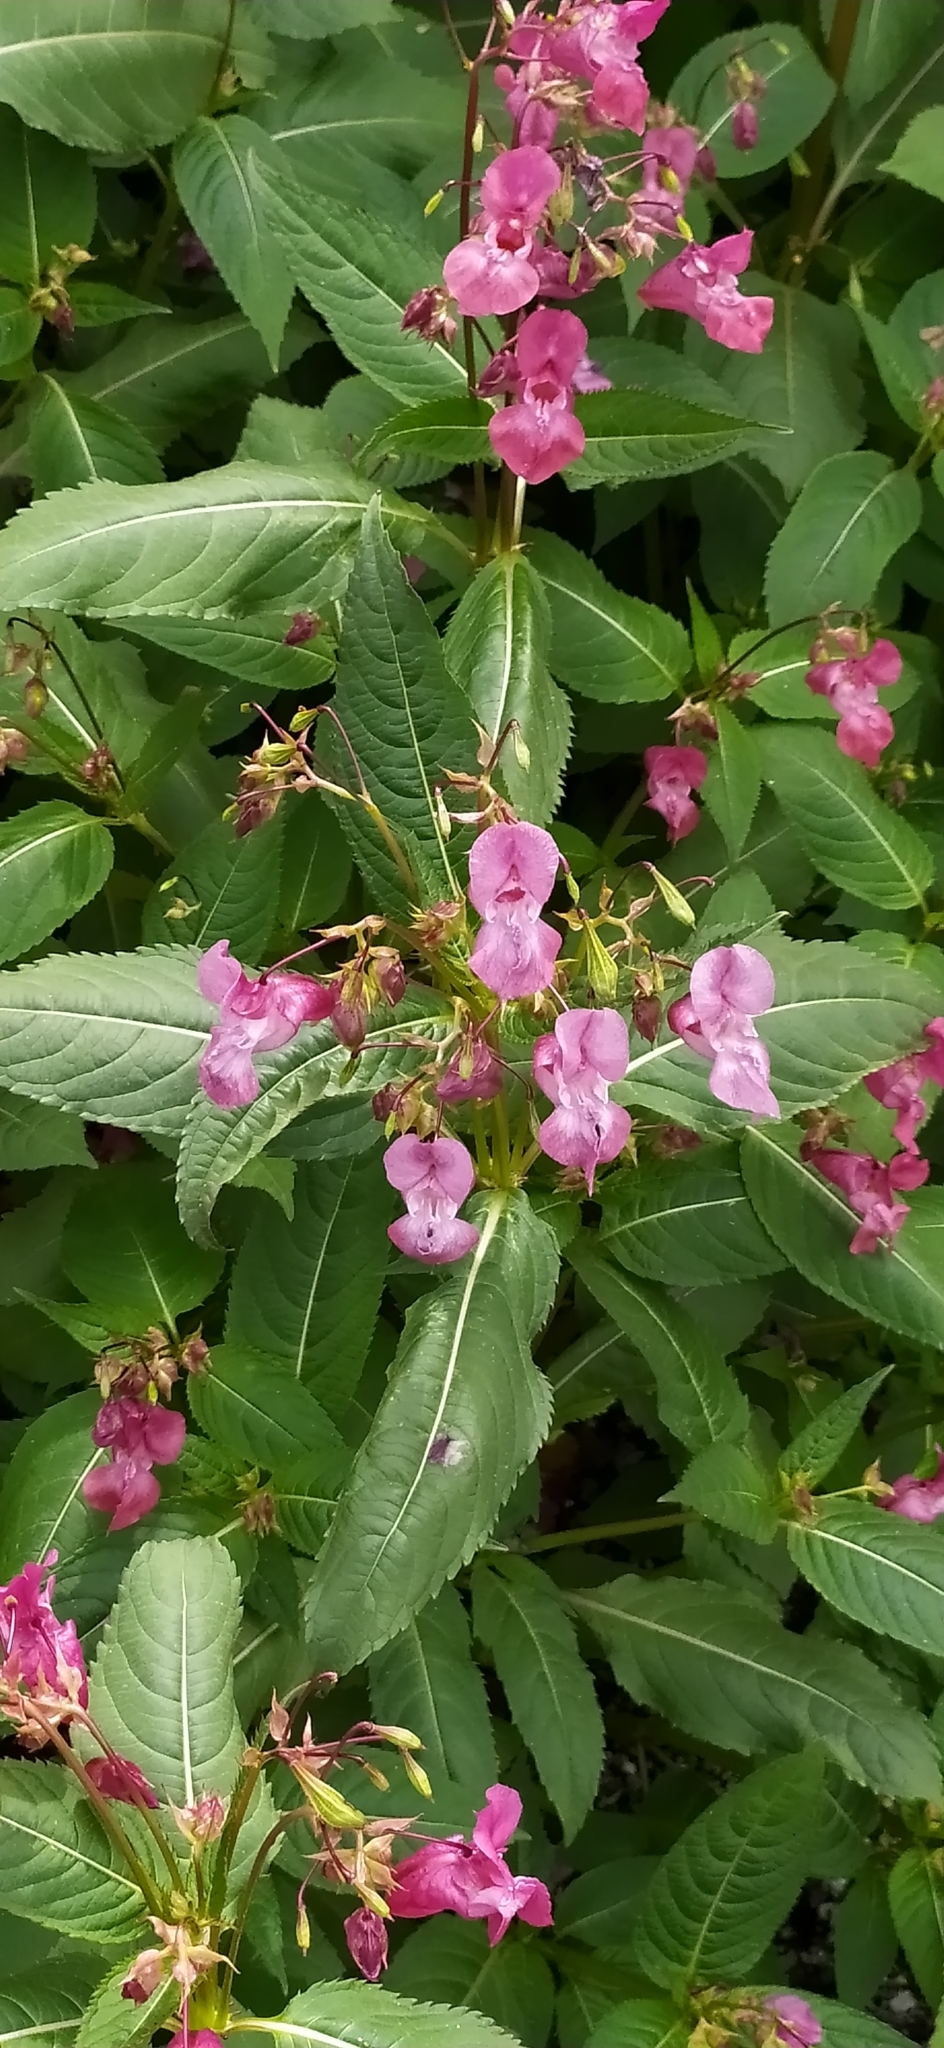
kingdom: Plantae
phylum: Tracheophyta
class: Magnoliopsida
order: Ericales
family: Balsaminaceae
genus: Impatiens
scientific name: Impatiens glandulifera
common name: Himalayan balsam
